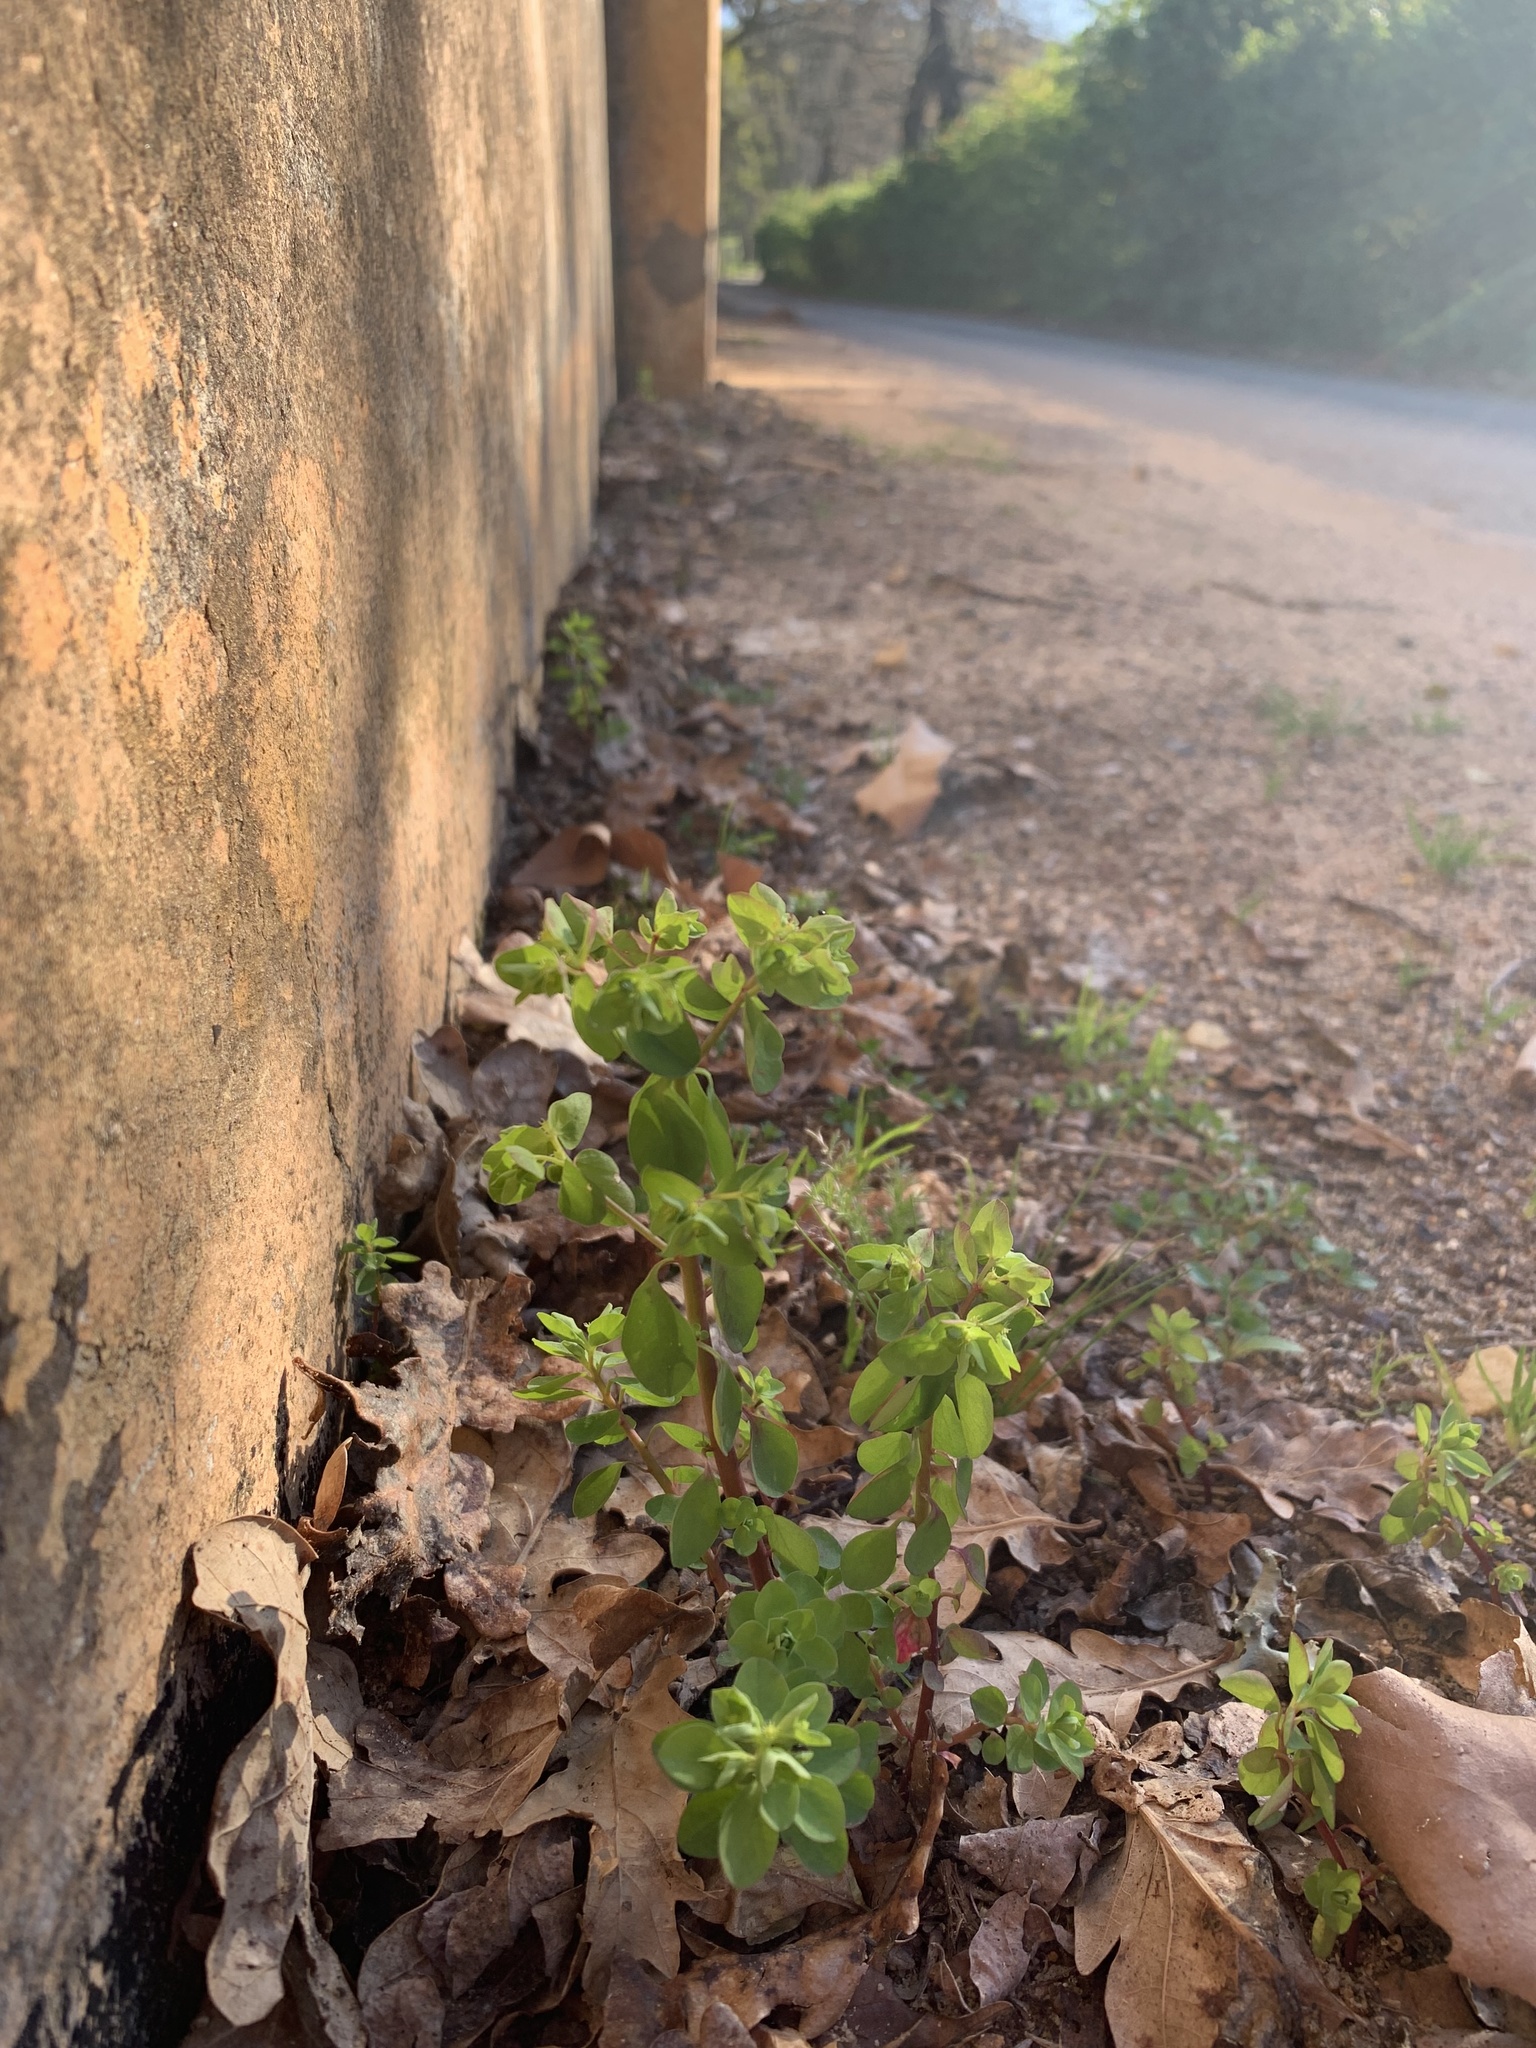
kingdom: Plantae
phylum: Tracheophyta
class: Magnoliopsida
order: Malpighiales
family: Euphorbiaceae
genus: Euphorbia
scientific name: Euphorbia peplus
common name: Petty spurge
